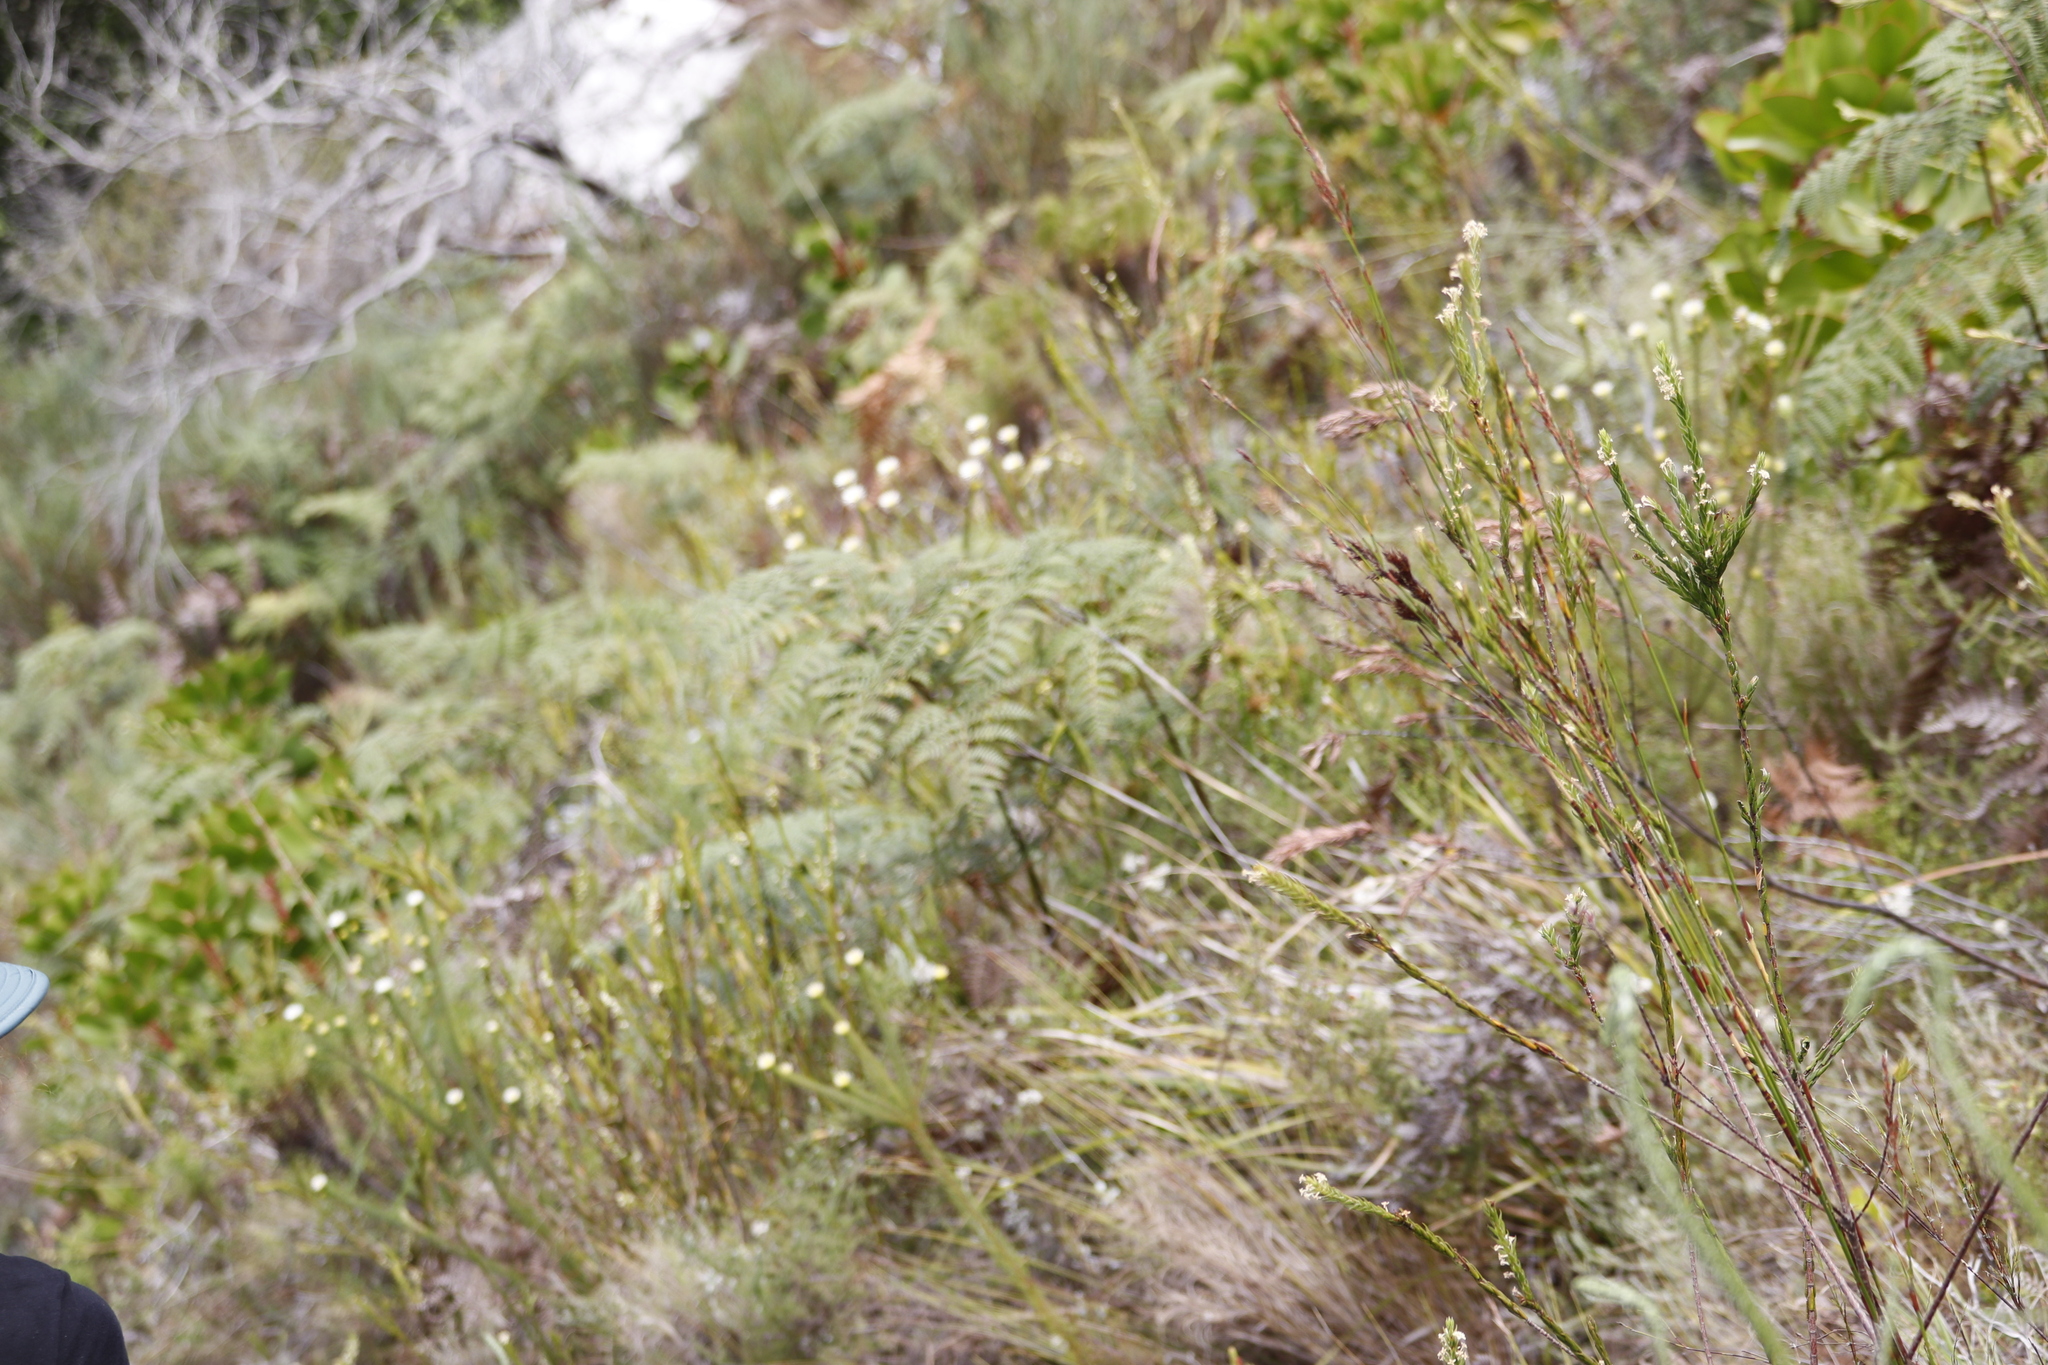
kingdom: Plantae
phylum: Tracheophyta
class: Magnoliopsida
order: Bruniales
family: Bruniaceae
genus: Staavia
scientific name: Staavia glutinosa
